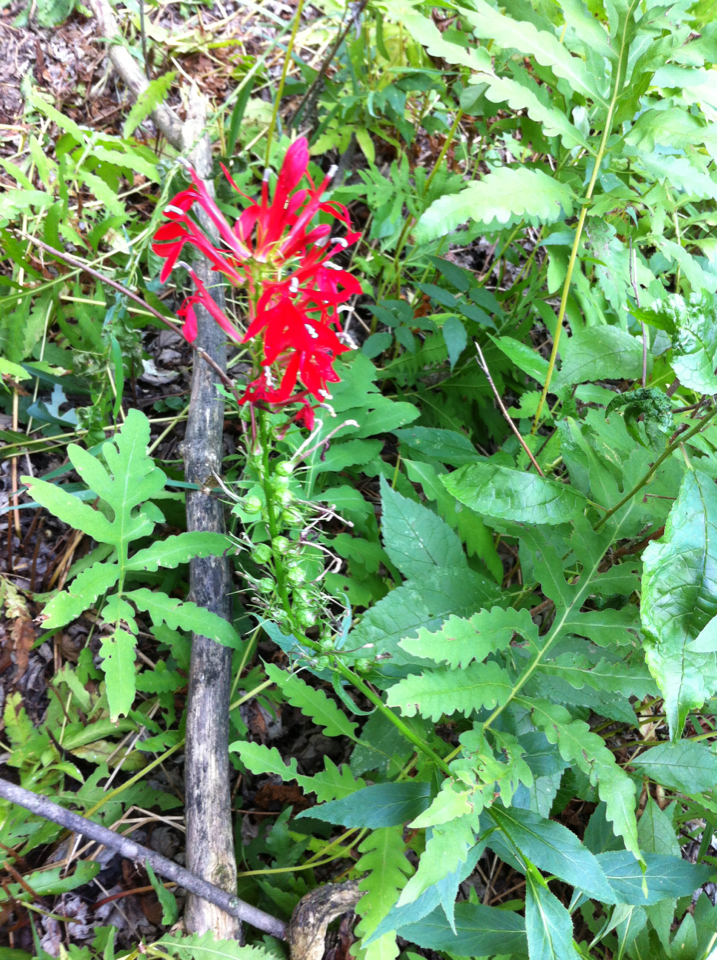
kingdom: Plantae
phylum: Tracheophyta
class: Polypodiopsida
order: Polypodiales
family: Onocleaceae
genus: Onoclea
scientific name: Onoclea sensibilis
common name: Sensitive fern
